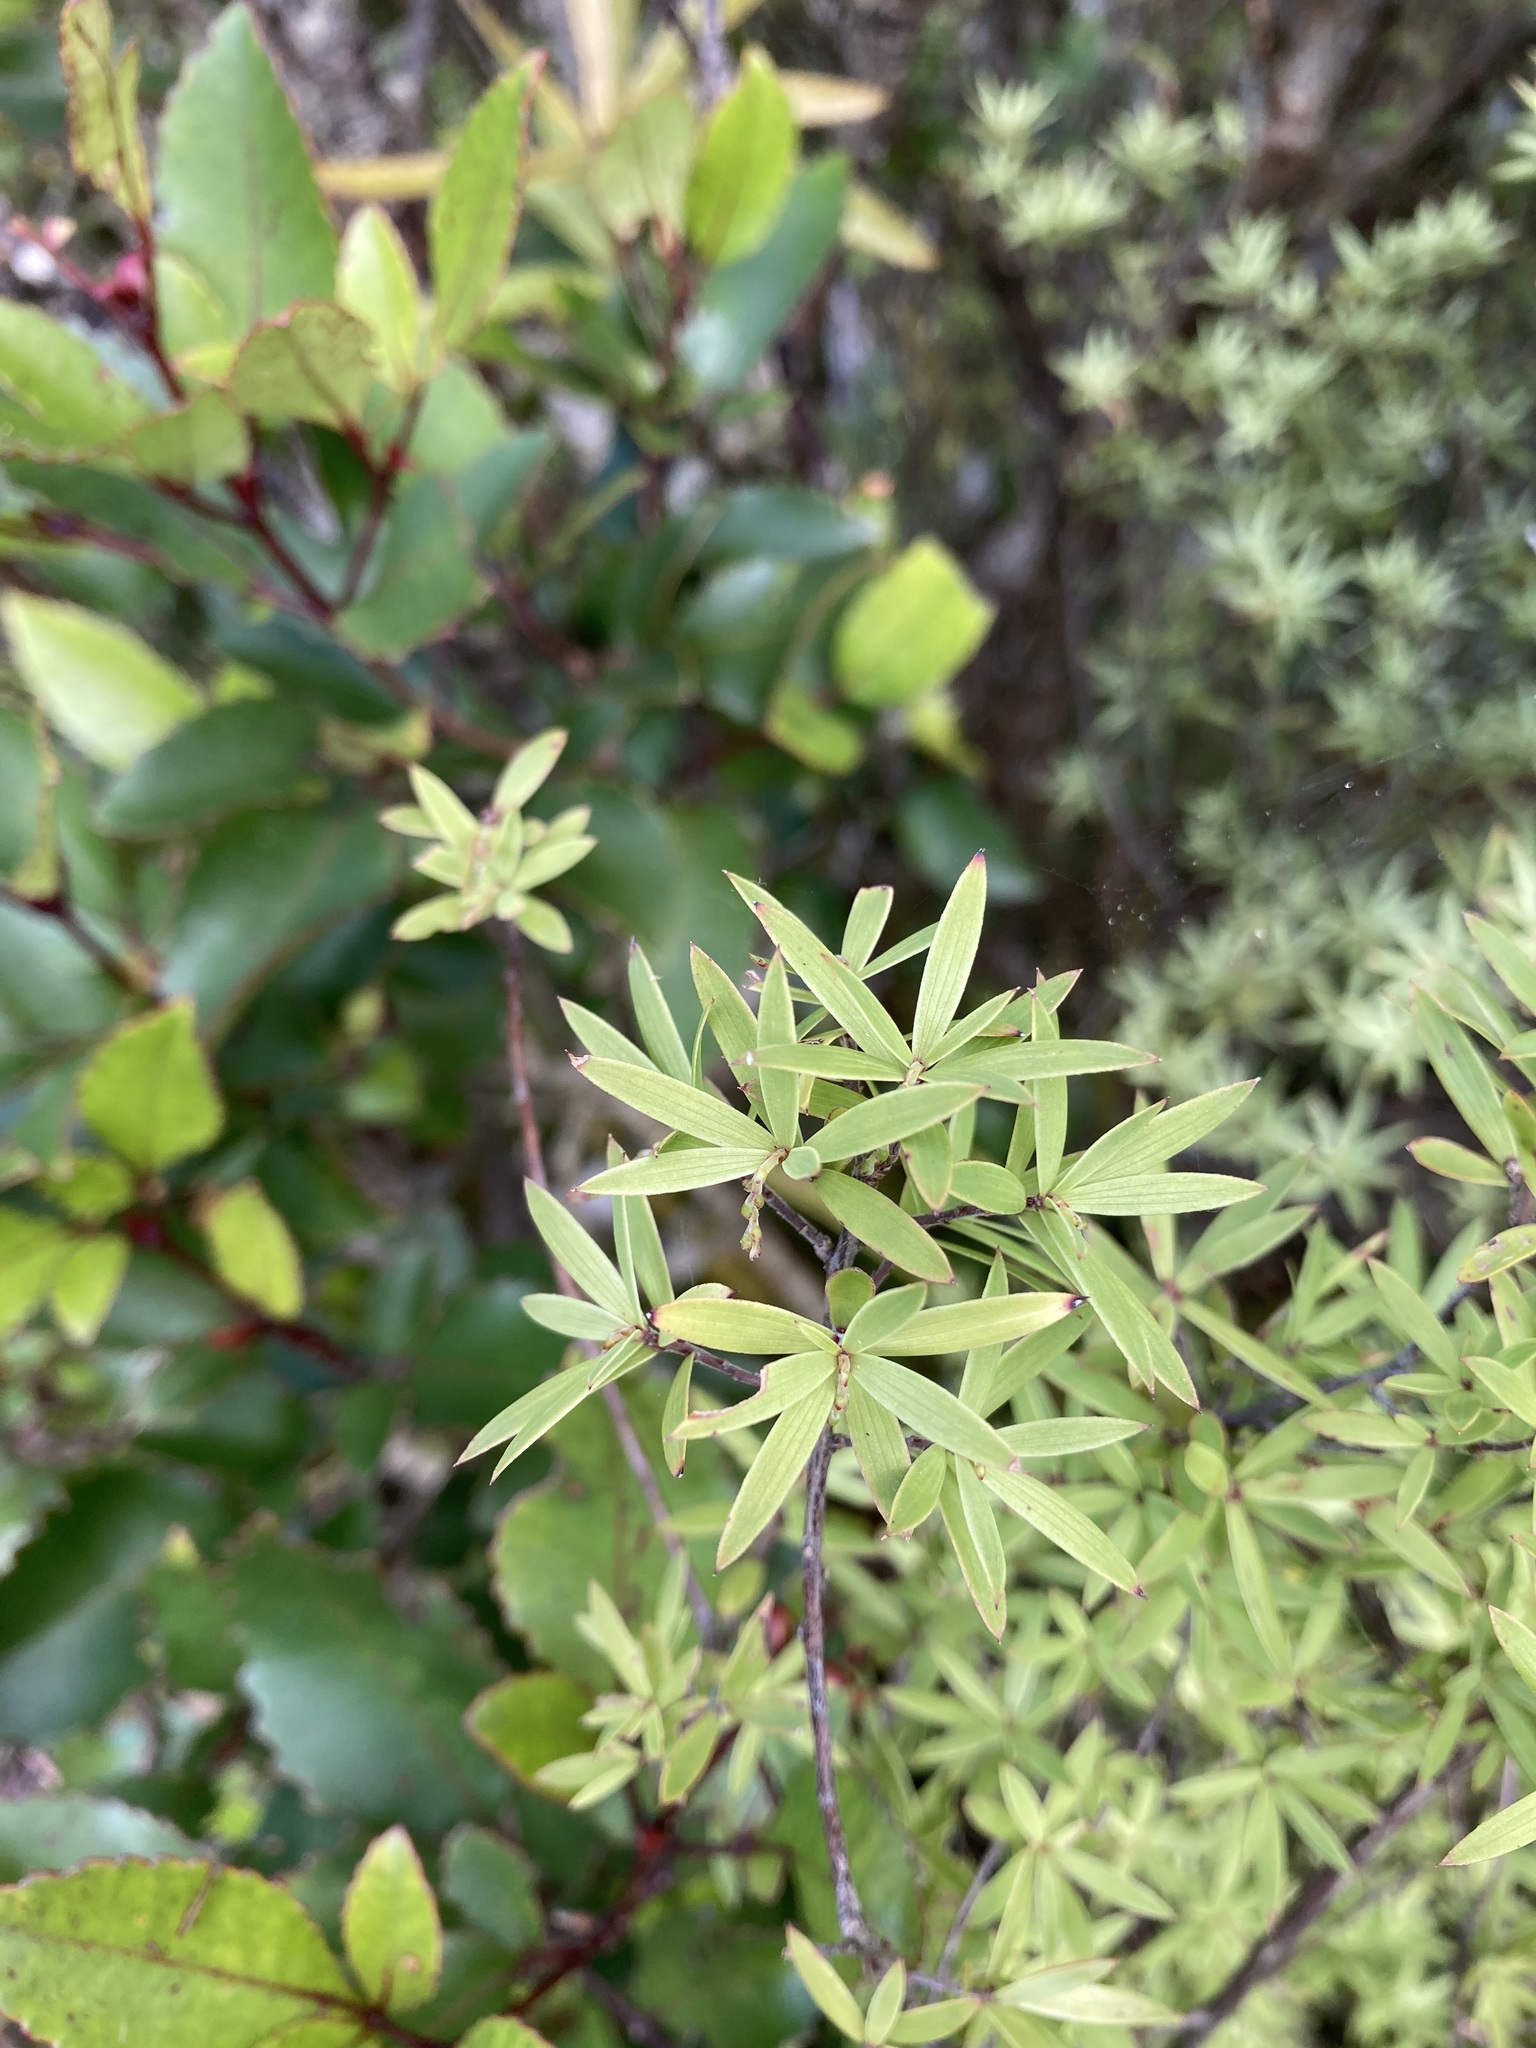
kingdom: Plantae
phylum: Tracheophyta
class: Magnoliopsida
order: Ericales
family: Ericaceae
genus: Leucopogon
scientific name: Leucopogon fasciculatus
